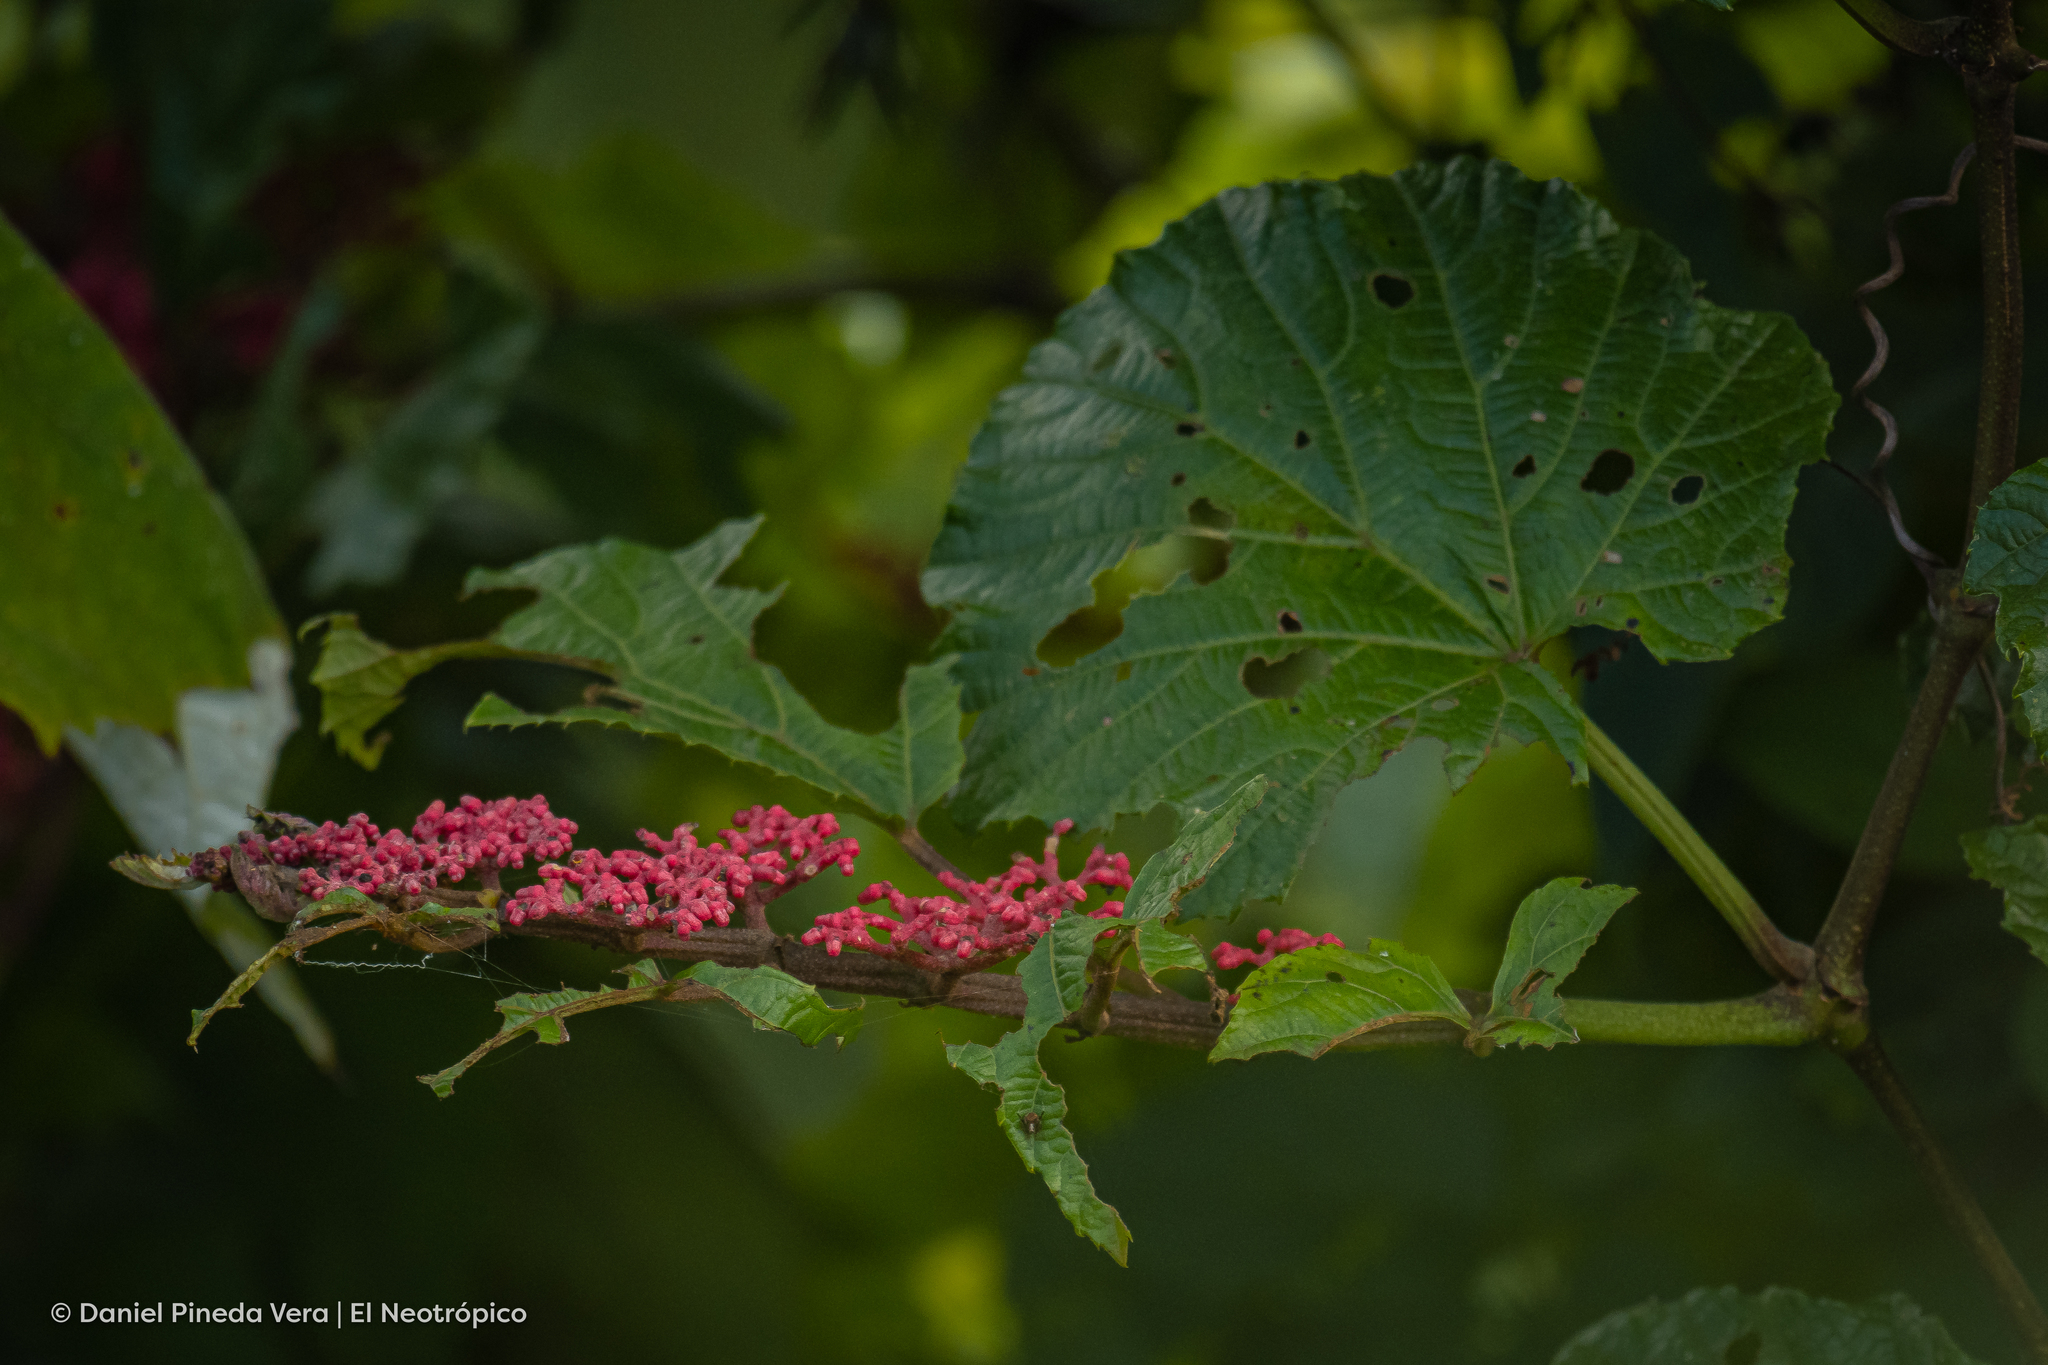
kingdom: Plantae
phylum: Tracheophyta
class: Magnoliopsida
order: Vitales
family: Vitaceae
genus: Cissus
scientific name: Cissus biformifolia
